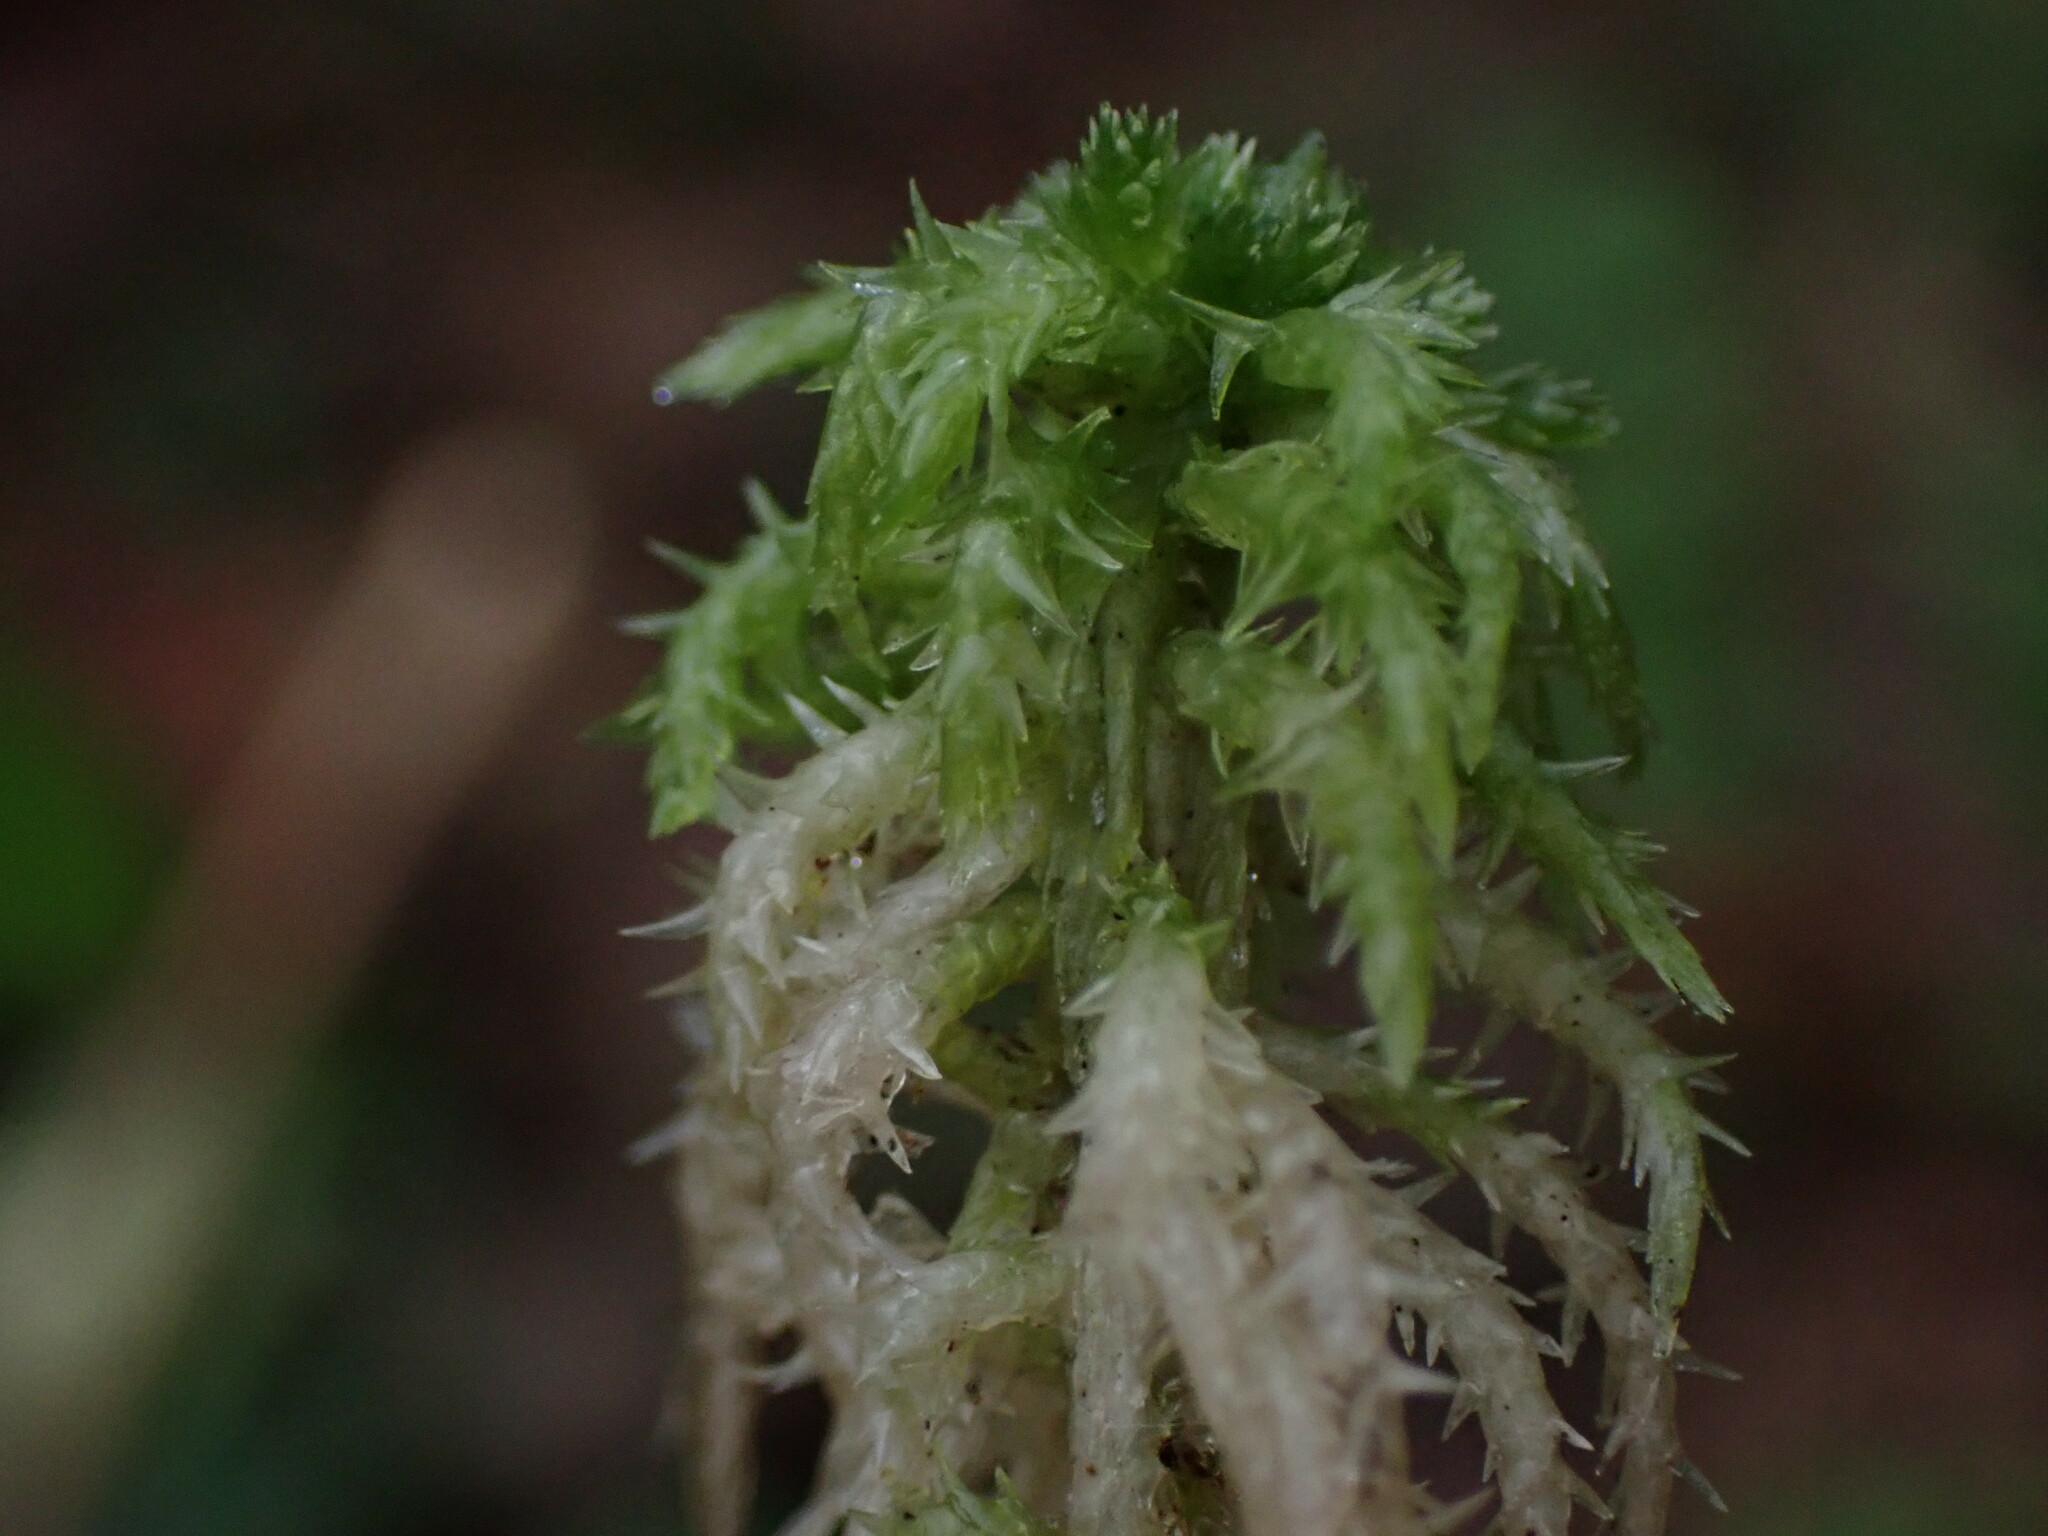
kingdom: Plantae
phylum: Bryophyta
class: Sphagnopsida
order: Sphagnales
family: Sphagnaceae
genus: Sphagnum
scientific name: Sphagnum squarrosum
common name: Shaggy peat moss
